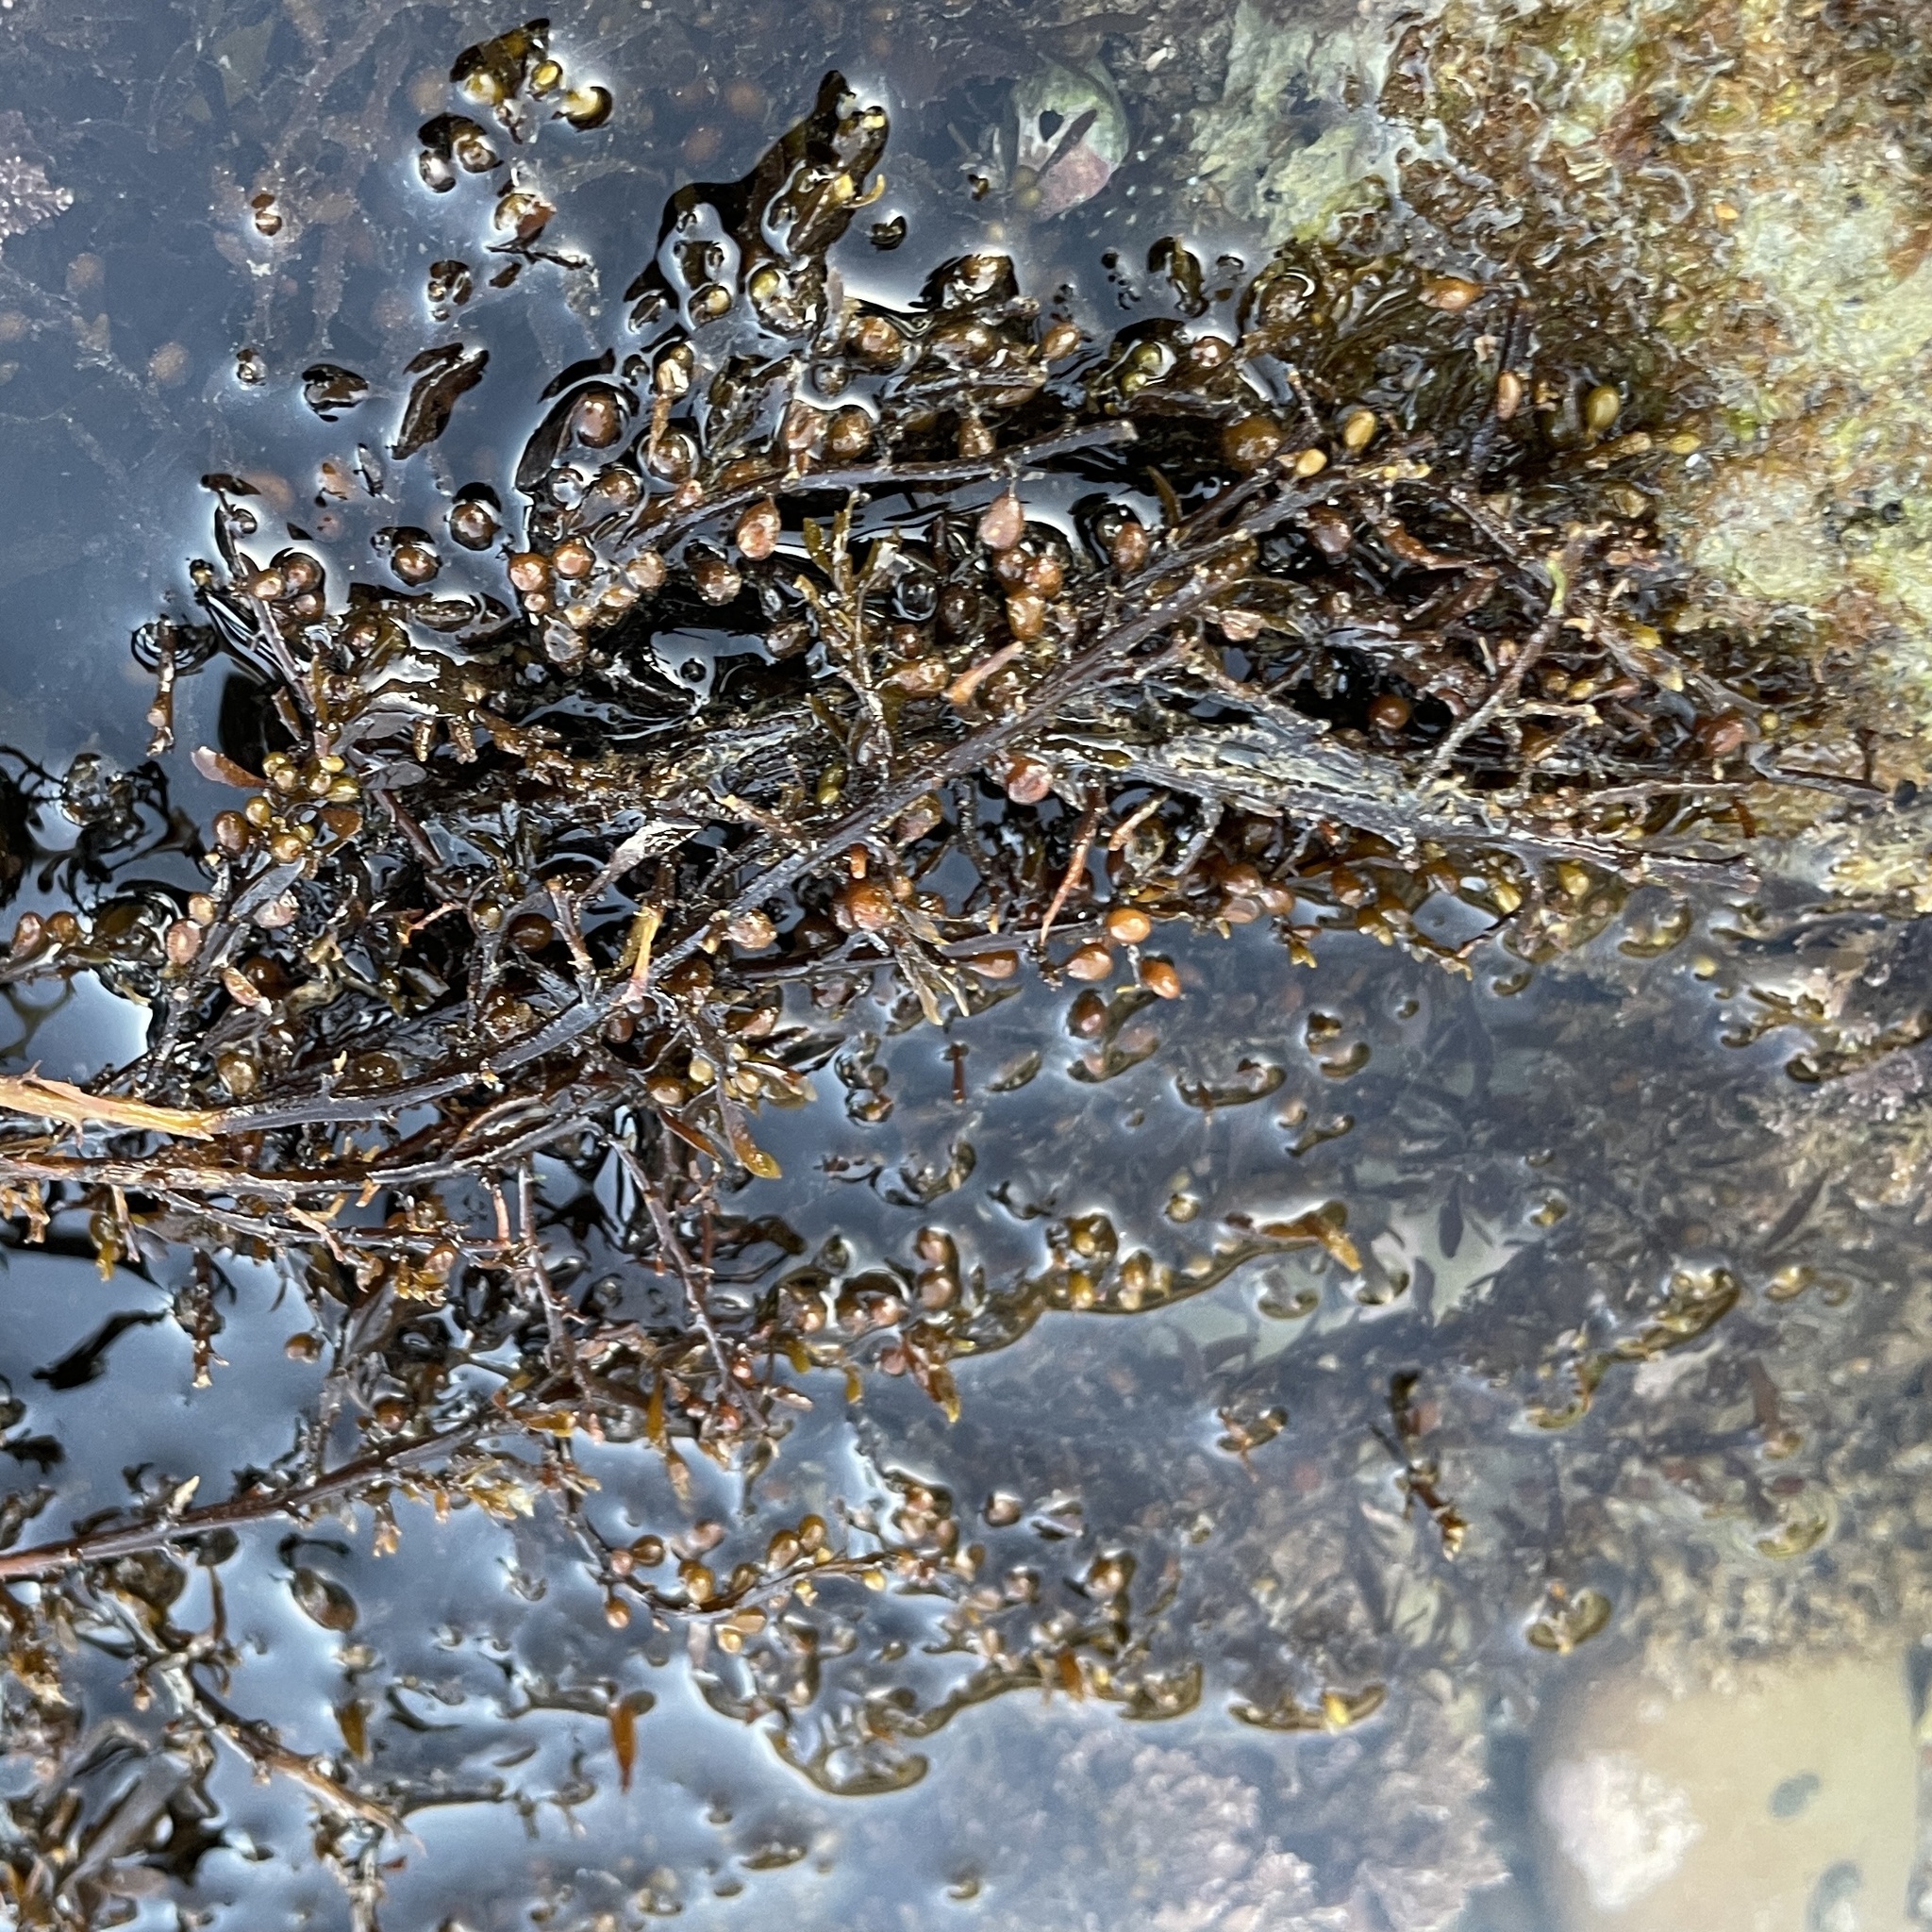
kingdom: Chromista
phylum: Ochrophyta
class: Phaeophyceae
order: Fucales
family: Sargassaceae
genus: Sargassum
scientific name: Sargassum muticum
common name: Japweed
